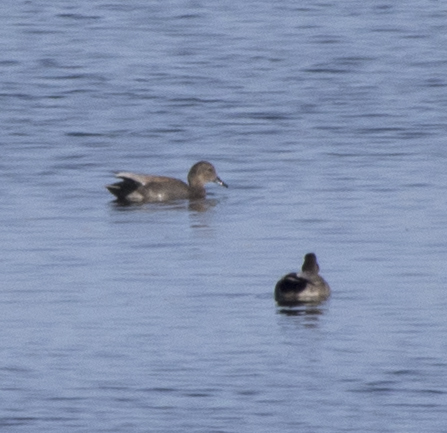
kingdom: Animalia
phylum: Chordata
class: Aves
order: Anseriformes
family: Anatidae
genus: Mareca
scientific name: Mareca strepera
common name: Gadwall
